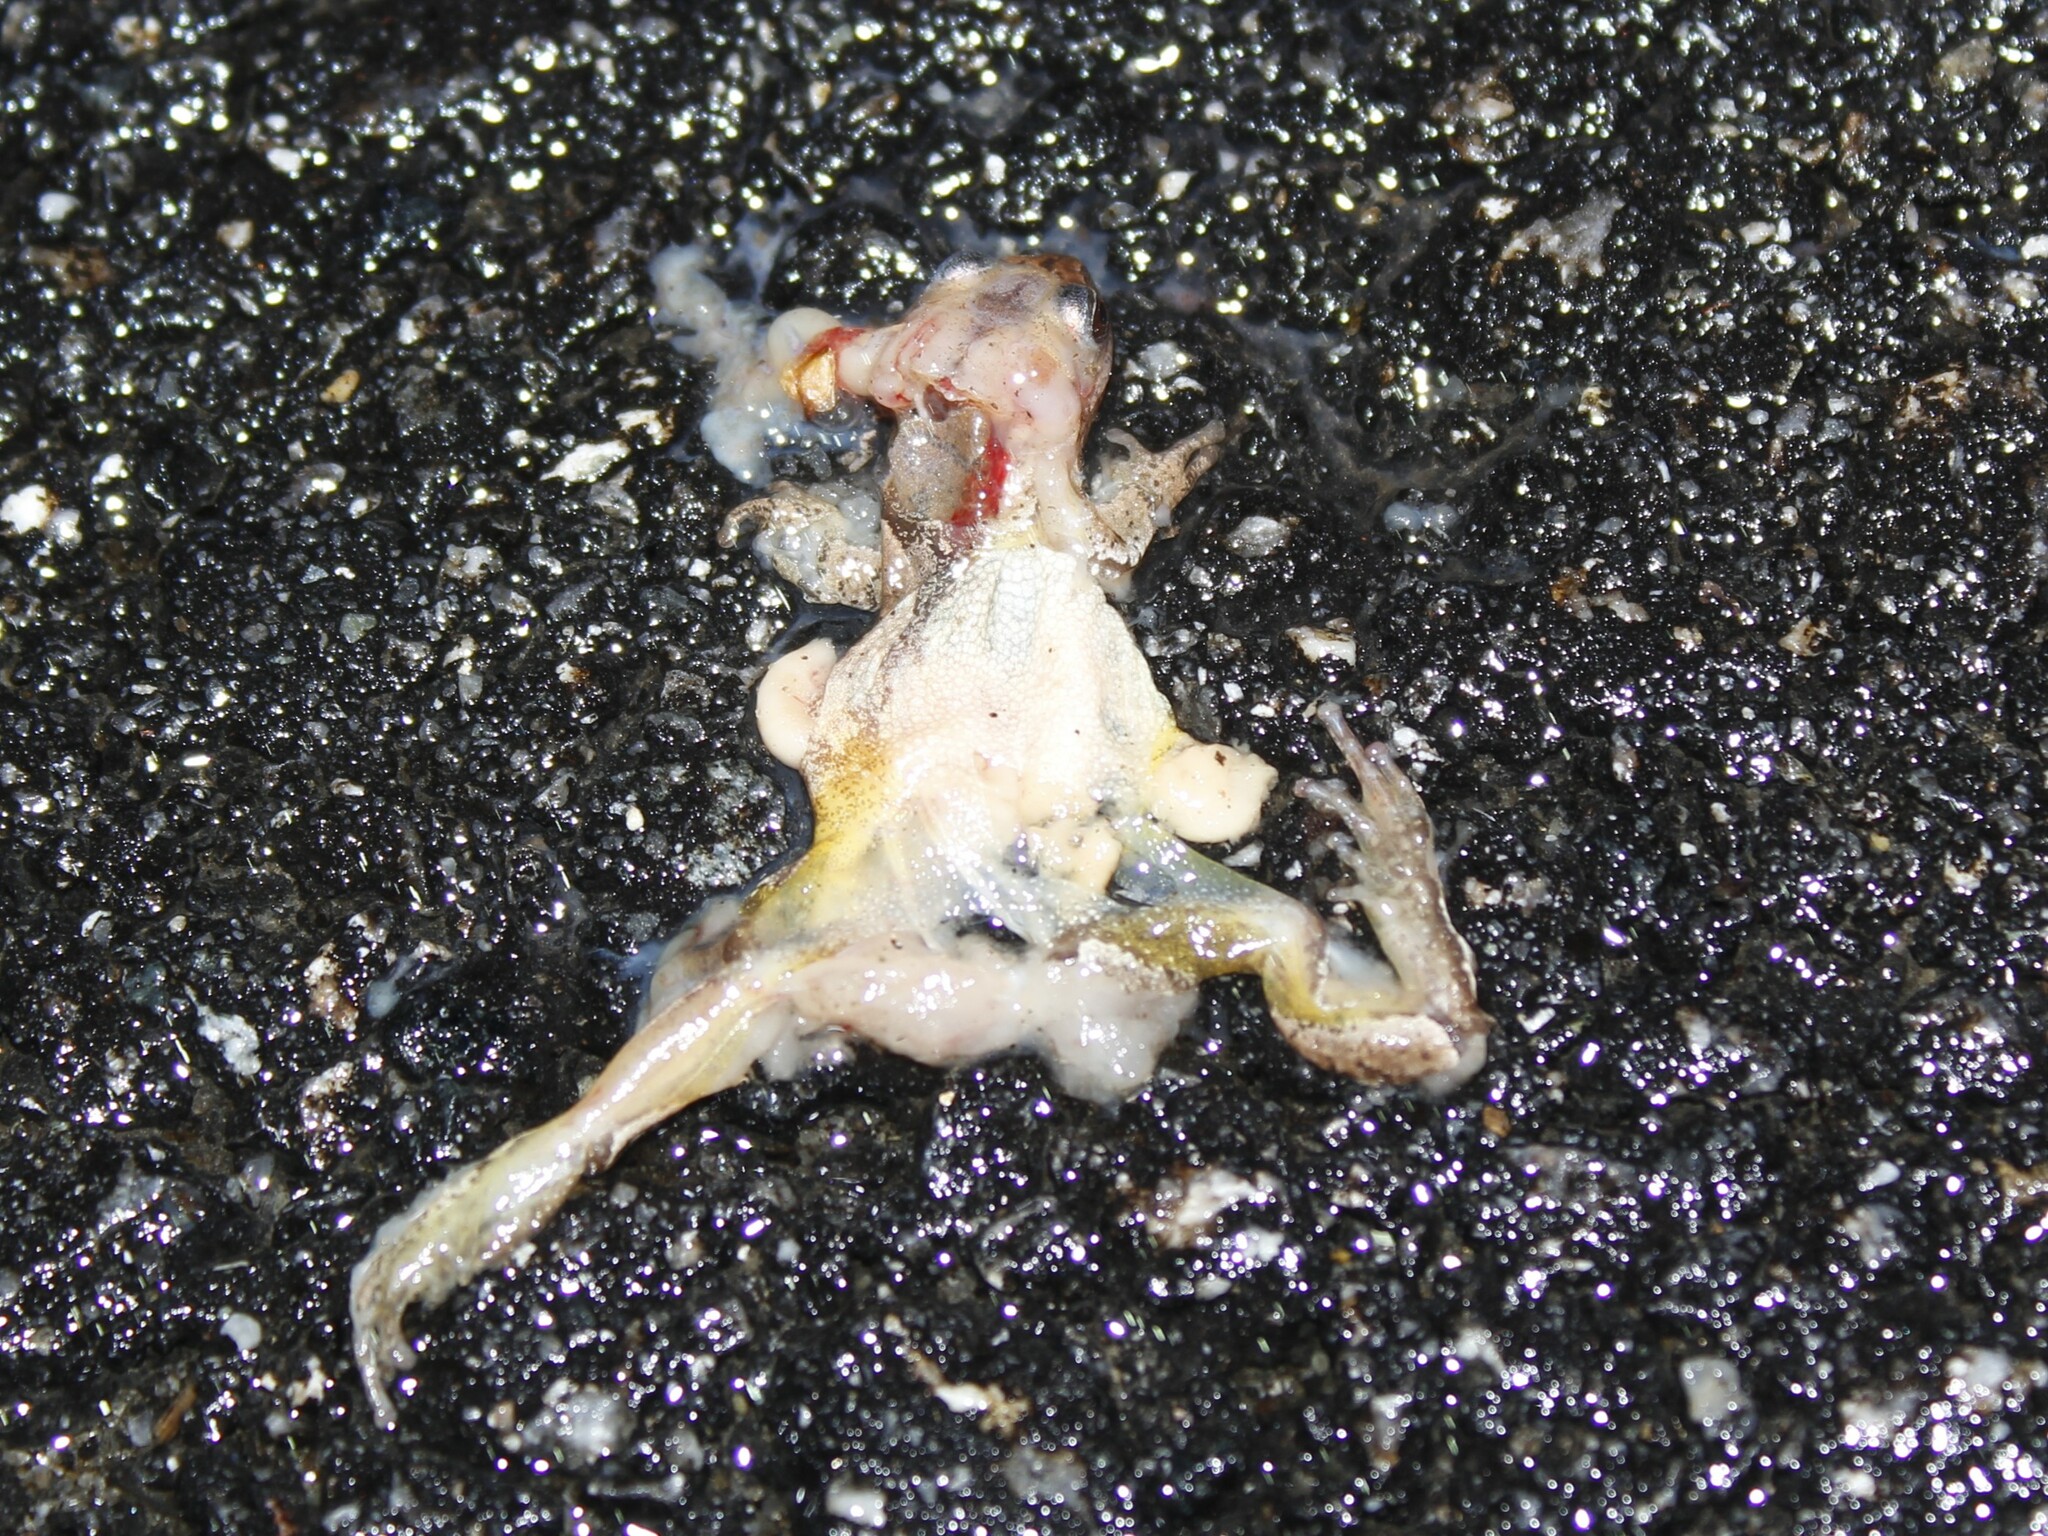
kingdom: Animalia
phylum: Chordata
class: Amphibia
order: Anura
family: Hylidae
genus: Pseudacris
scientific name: Pseudacris crucifer
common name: Spring peeper
